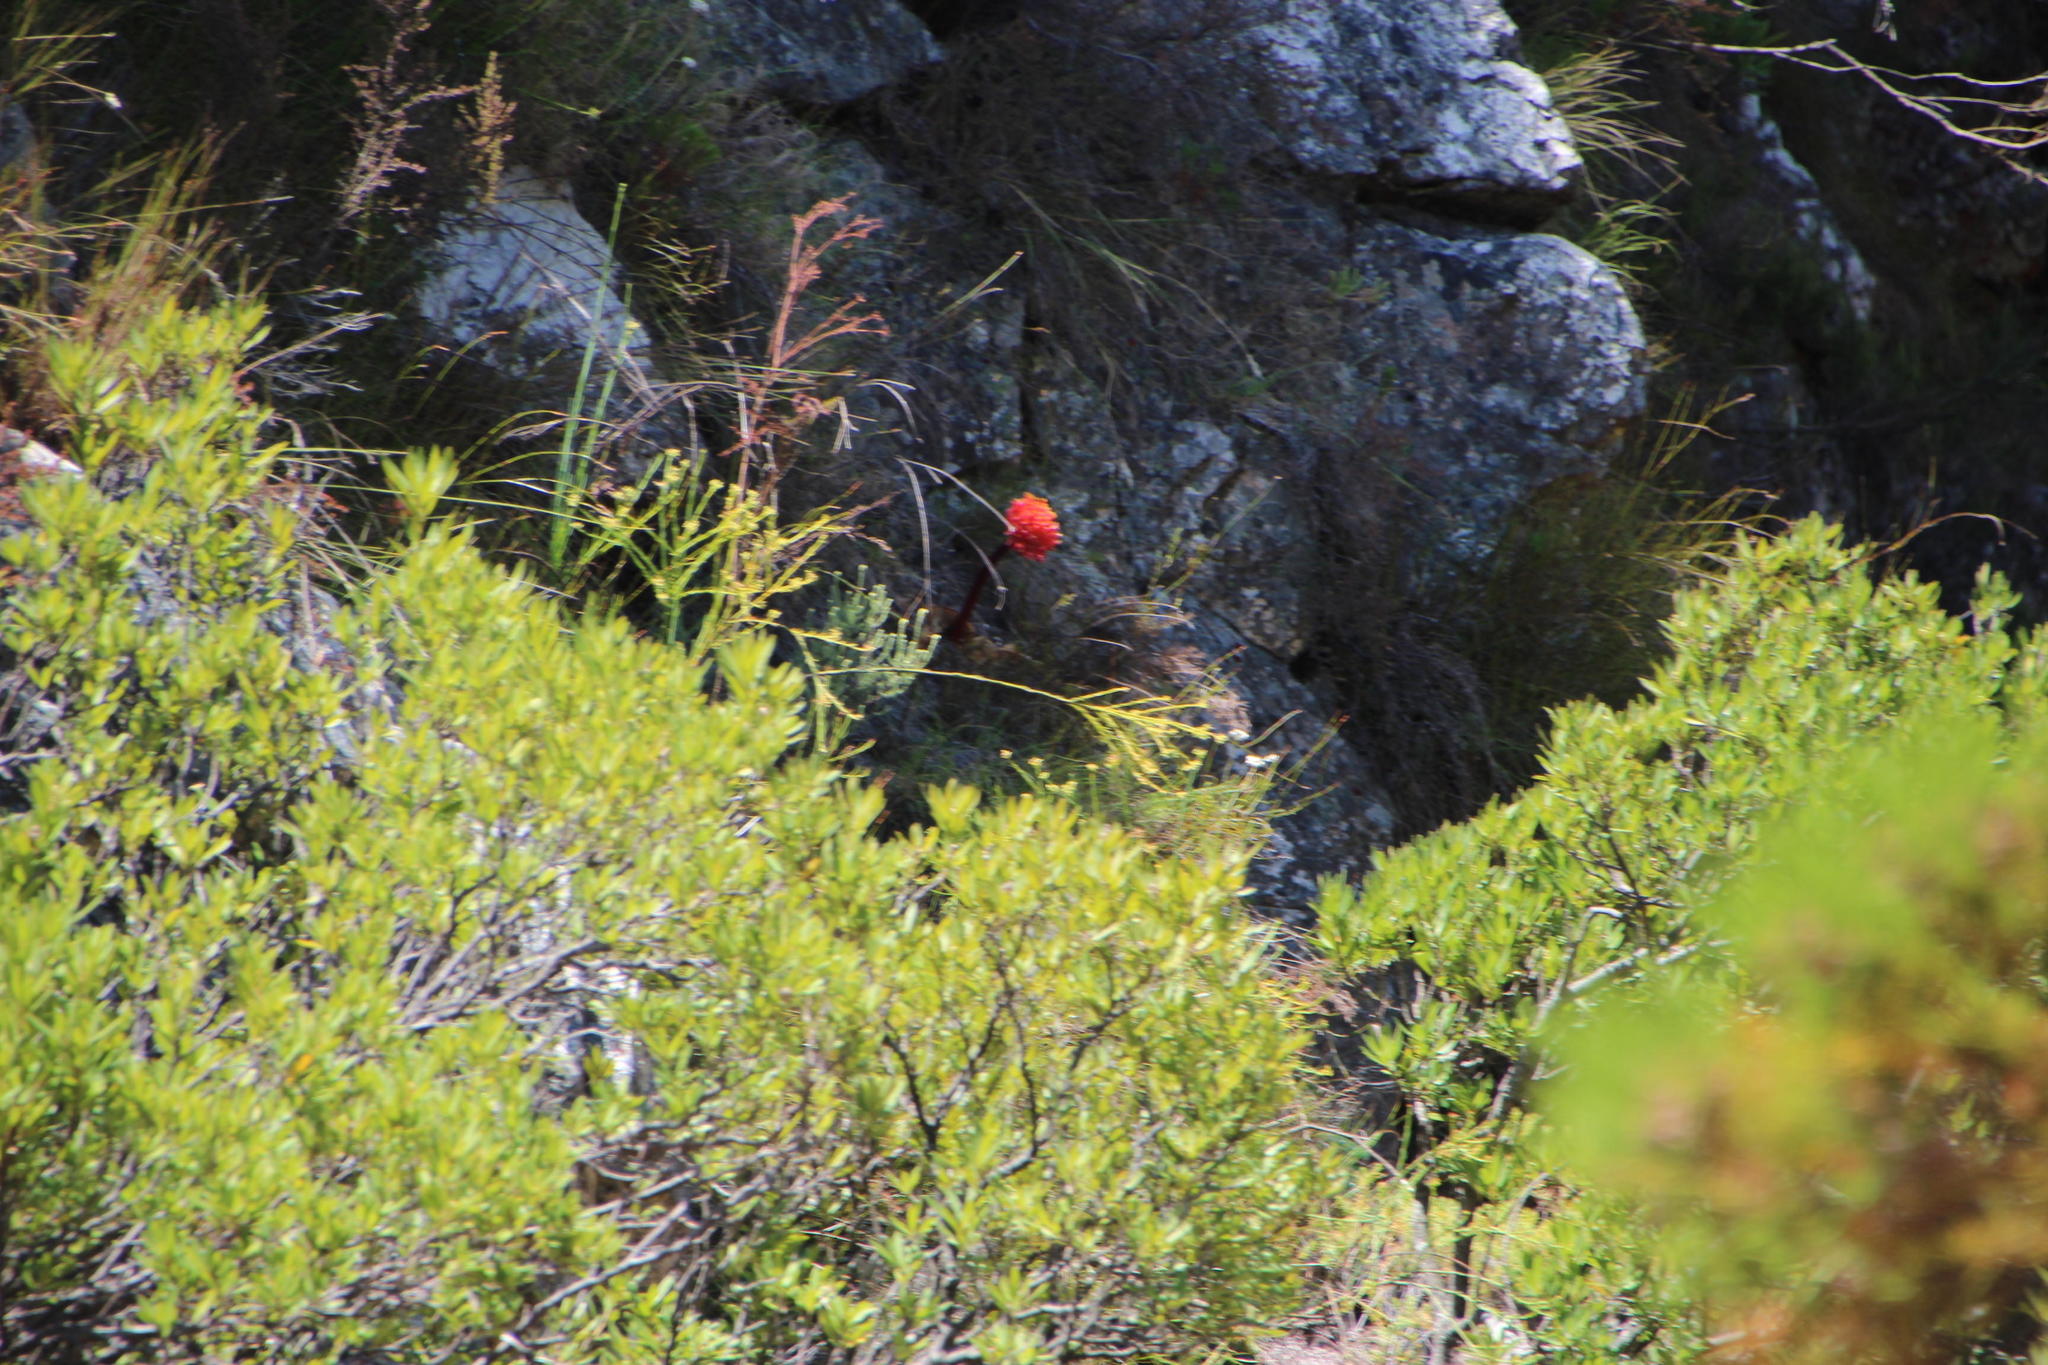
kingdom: Plantae
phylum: Tracheophyta
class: Liliopsida
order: Asparagales
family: Amaryllidaceae
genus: Haemanthus
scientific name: Haemanthus sanguineus
